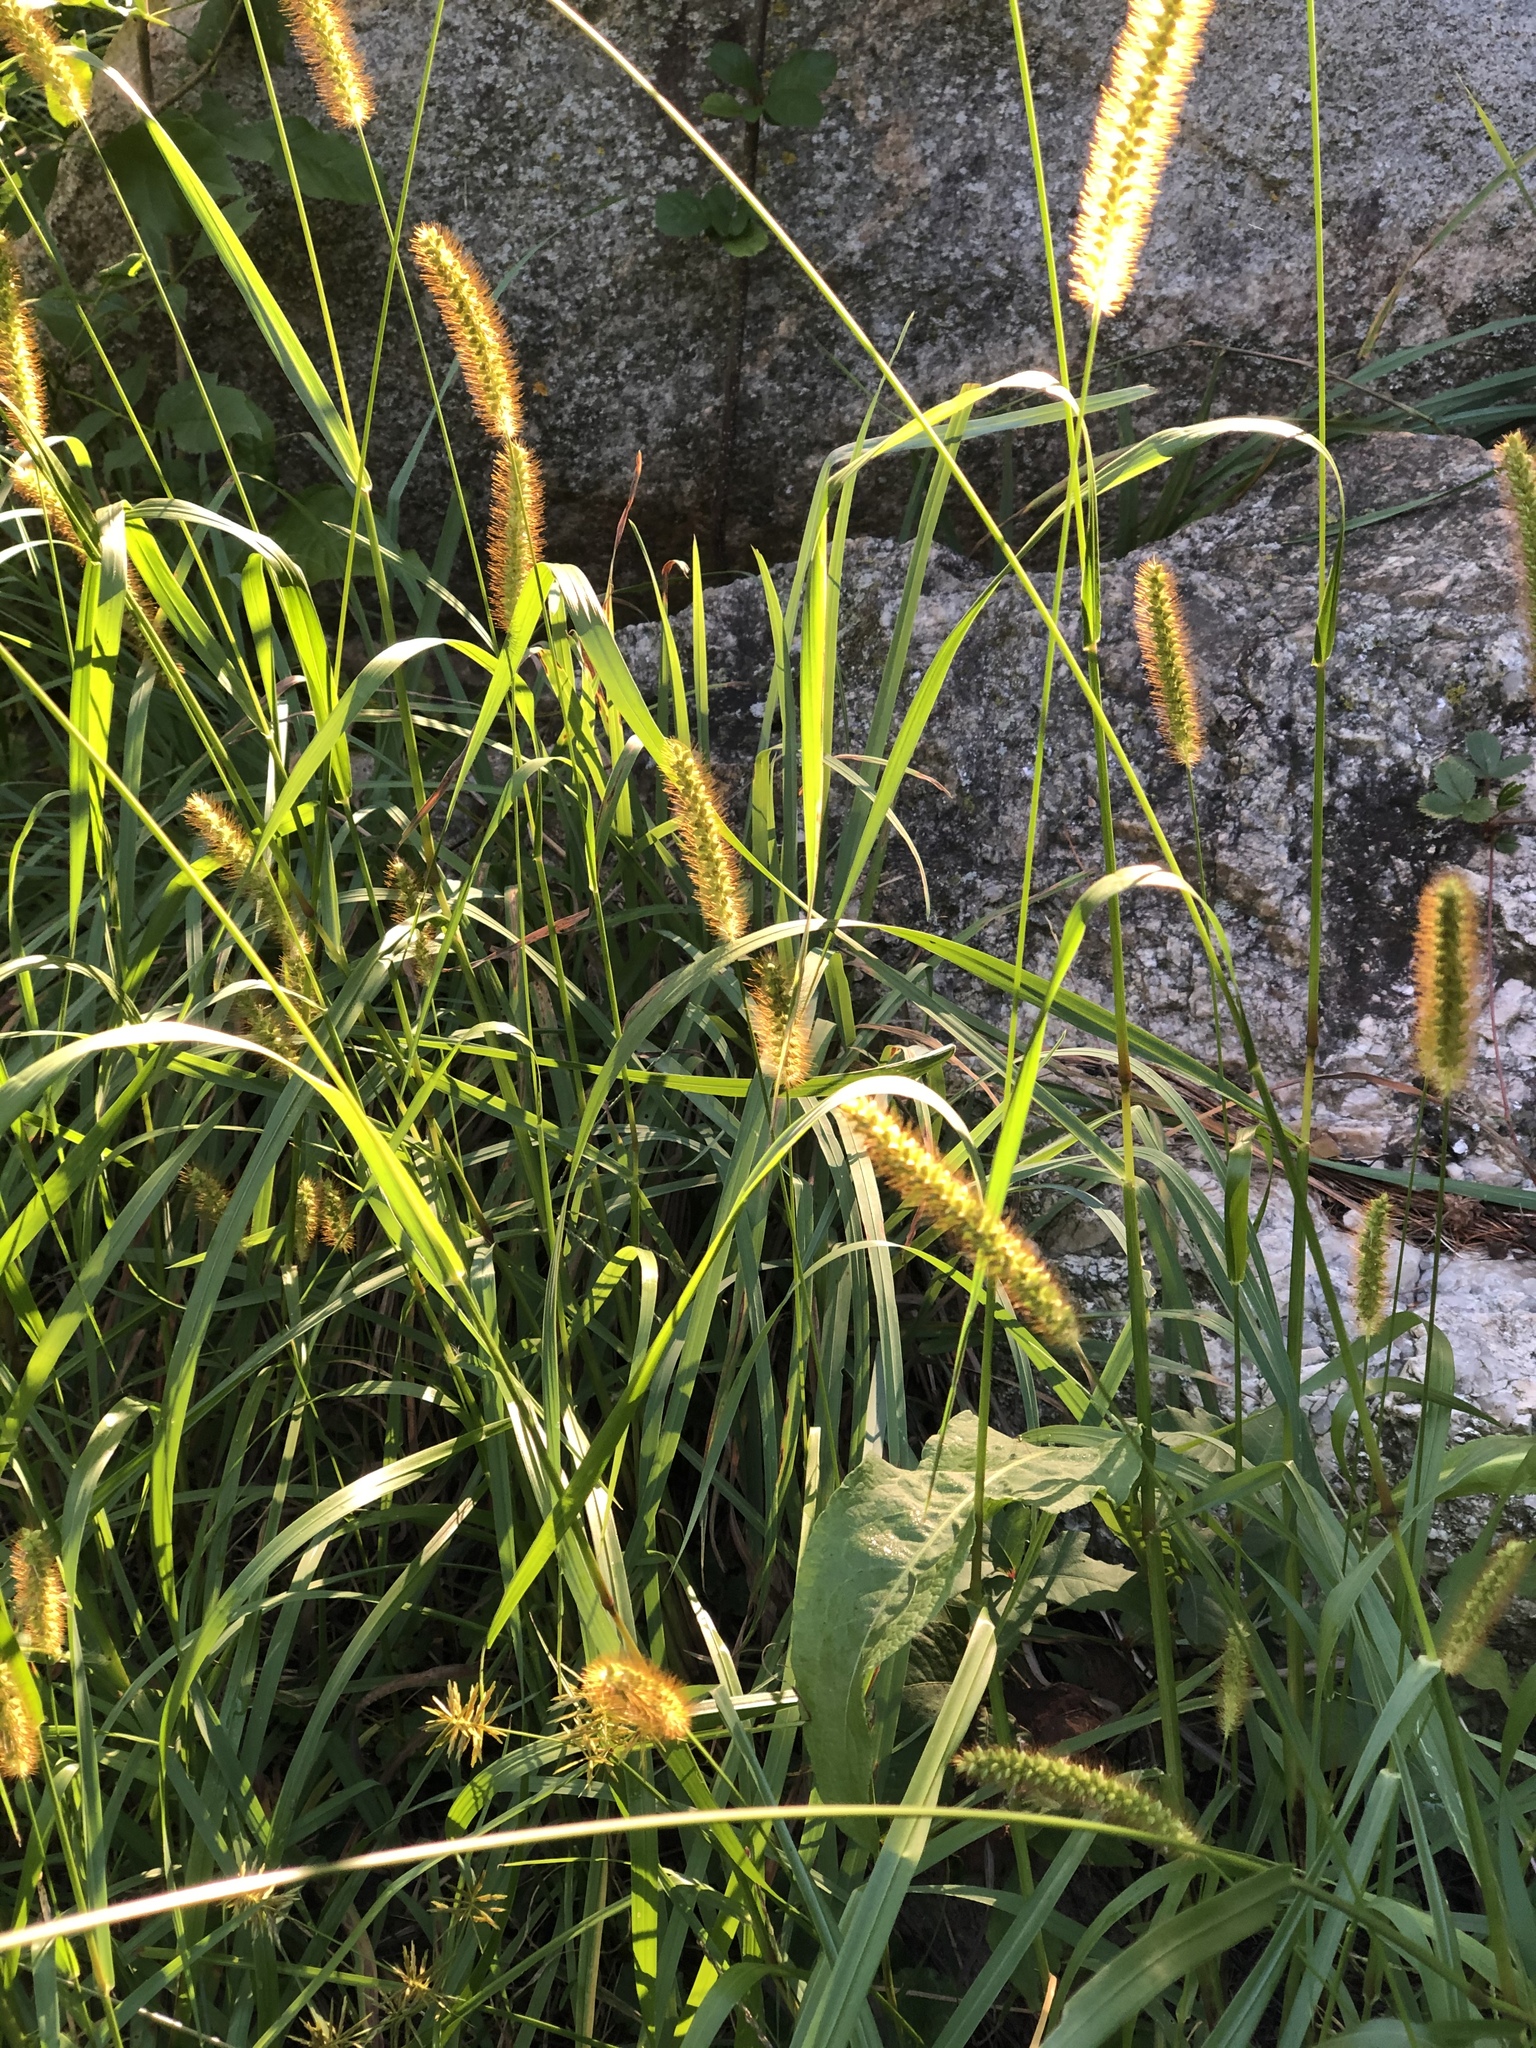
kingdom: Plantae
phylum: Tracheophyta
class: Liliopsida
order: Poales
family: Poaceae
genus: Setaria
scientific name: Setaria pumila
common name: Yellow bristle-grass
